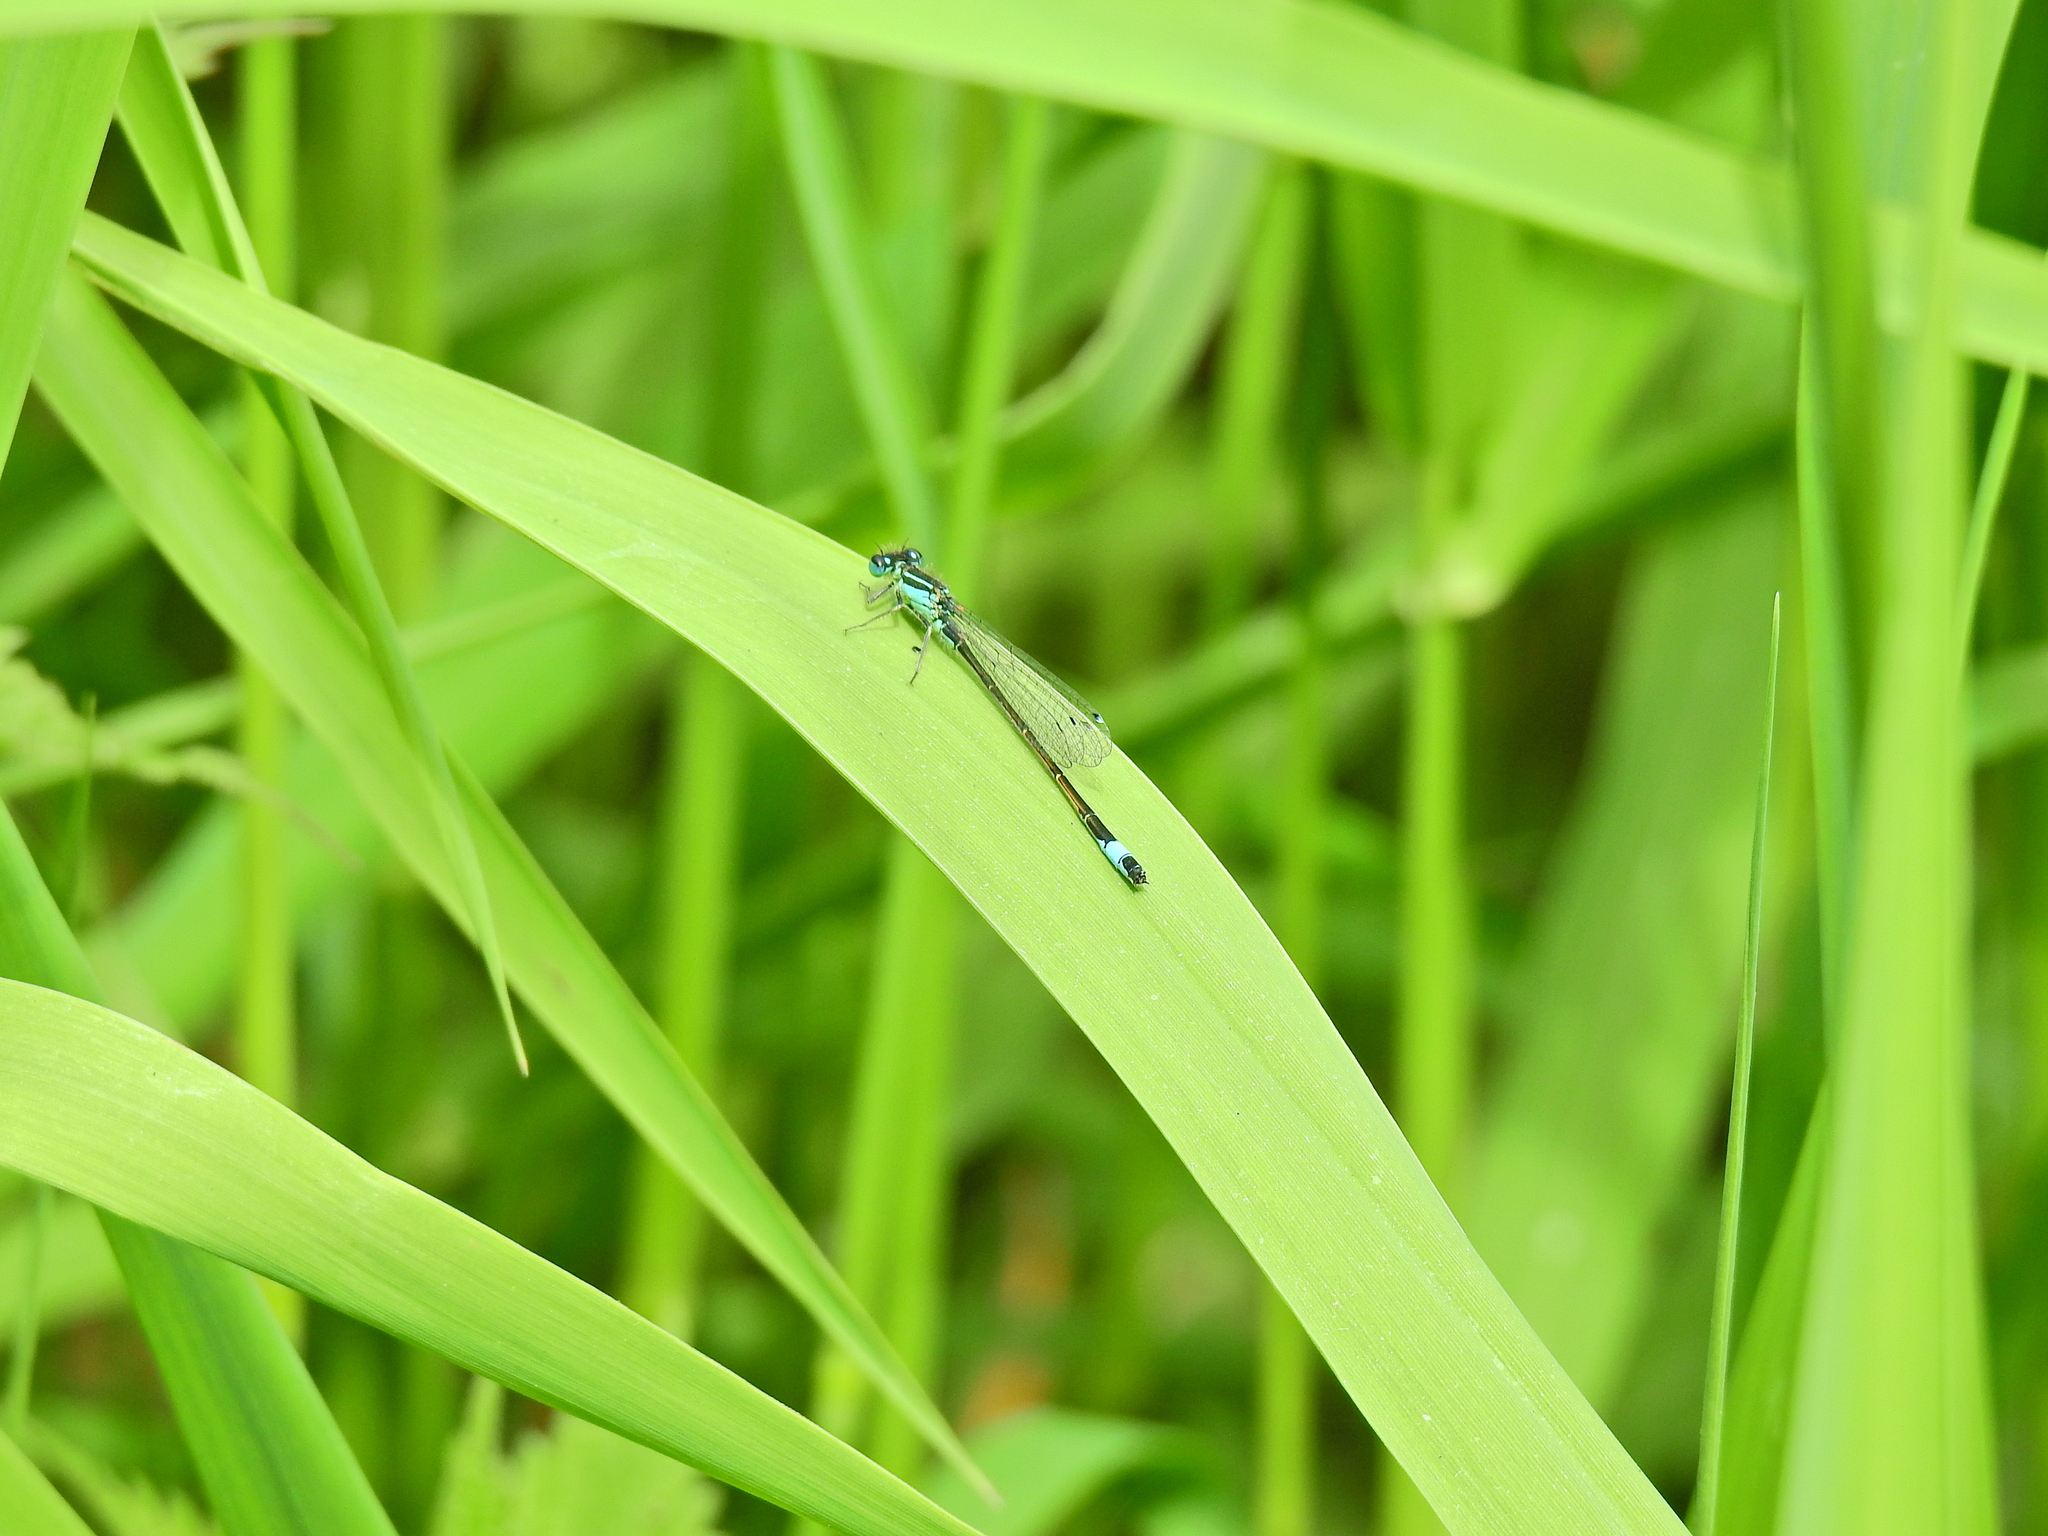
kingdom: Animalia
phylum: Arthropoda
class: Insecta
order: Odonata
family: Coenagrionidae
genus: Ischnura
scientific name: Ischnura elegans
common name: Blue-tailed damselfly
